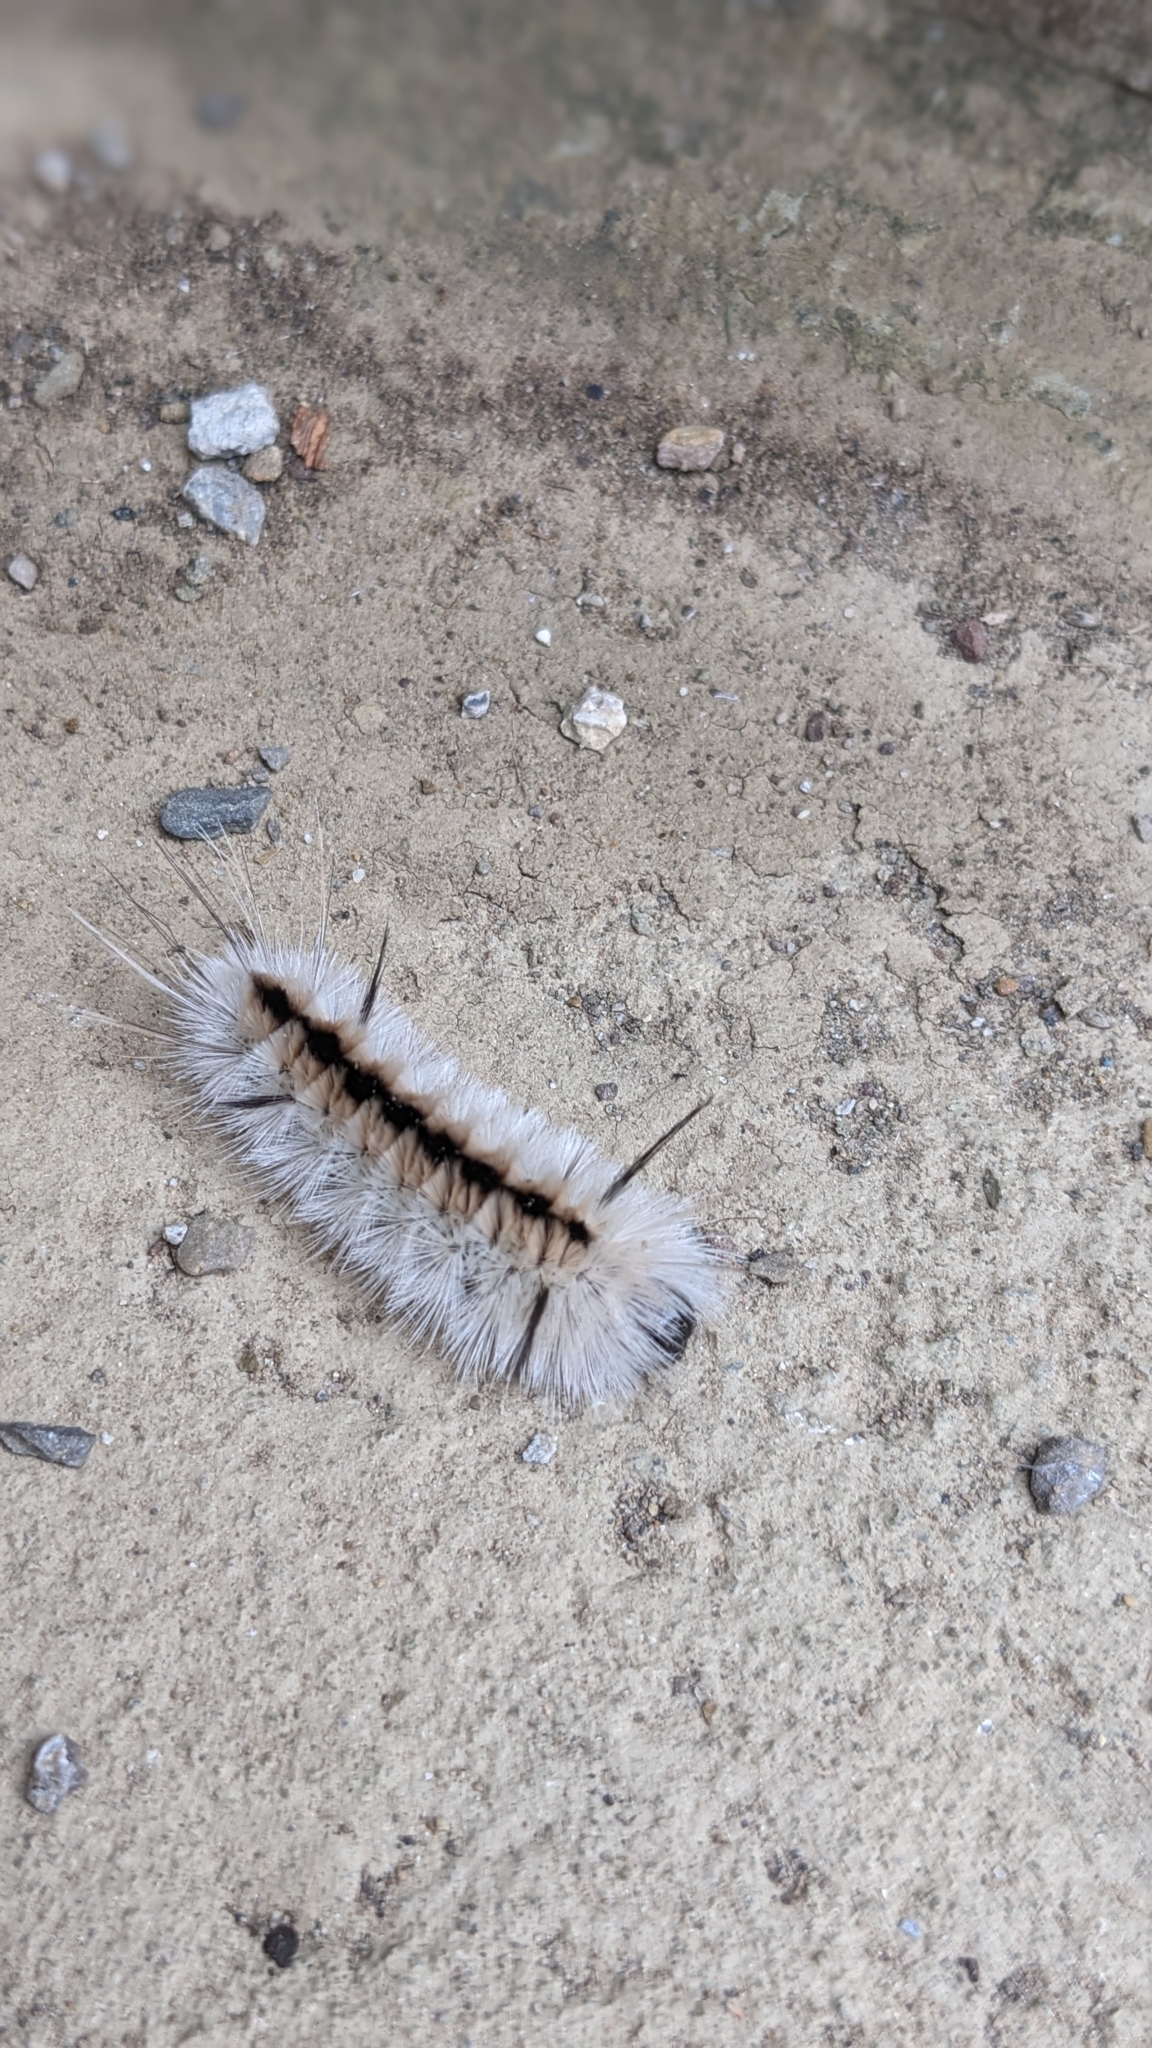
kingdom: Animalia
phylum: Arthropoda
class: Insecta
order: Lepidoptera
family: Erebidae
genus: Lophocampa
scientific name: Lophocampa caryae
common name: Hickory tussock moth
